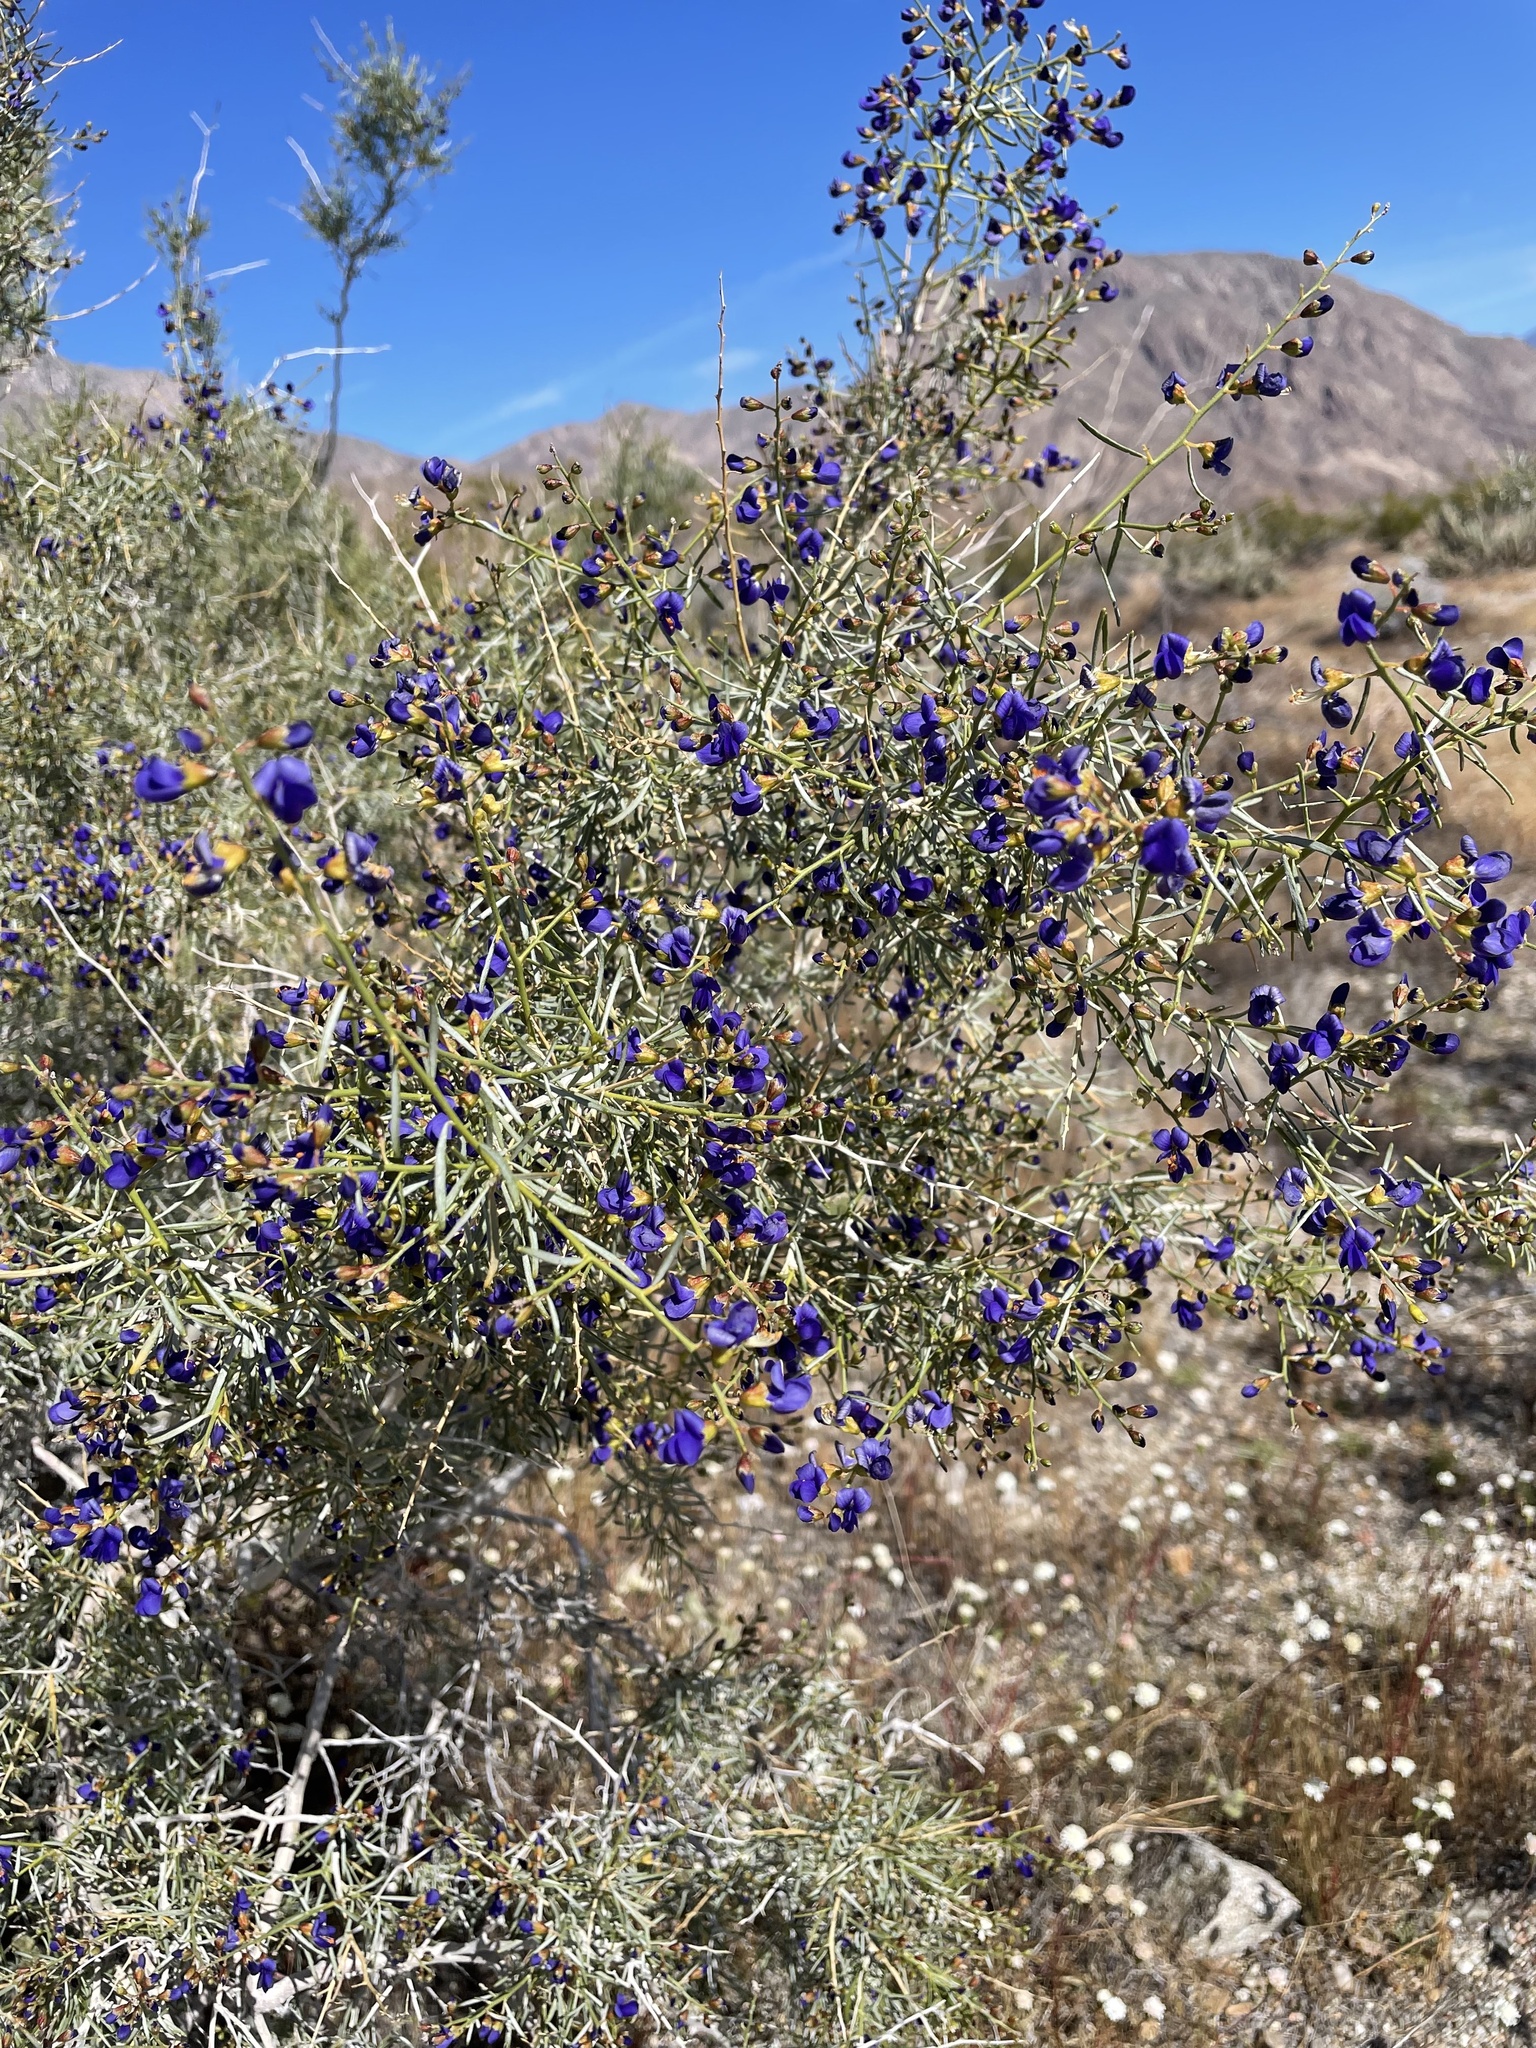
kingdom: Plantae
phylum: Tracheophyta
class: Magnoliopsida
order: Fabales
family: Fabaceae
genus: Psorothamnus
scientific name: Psorothamnus schottii
